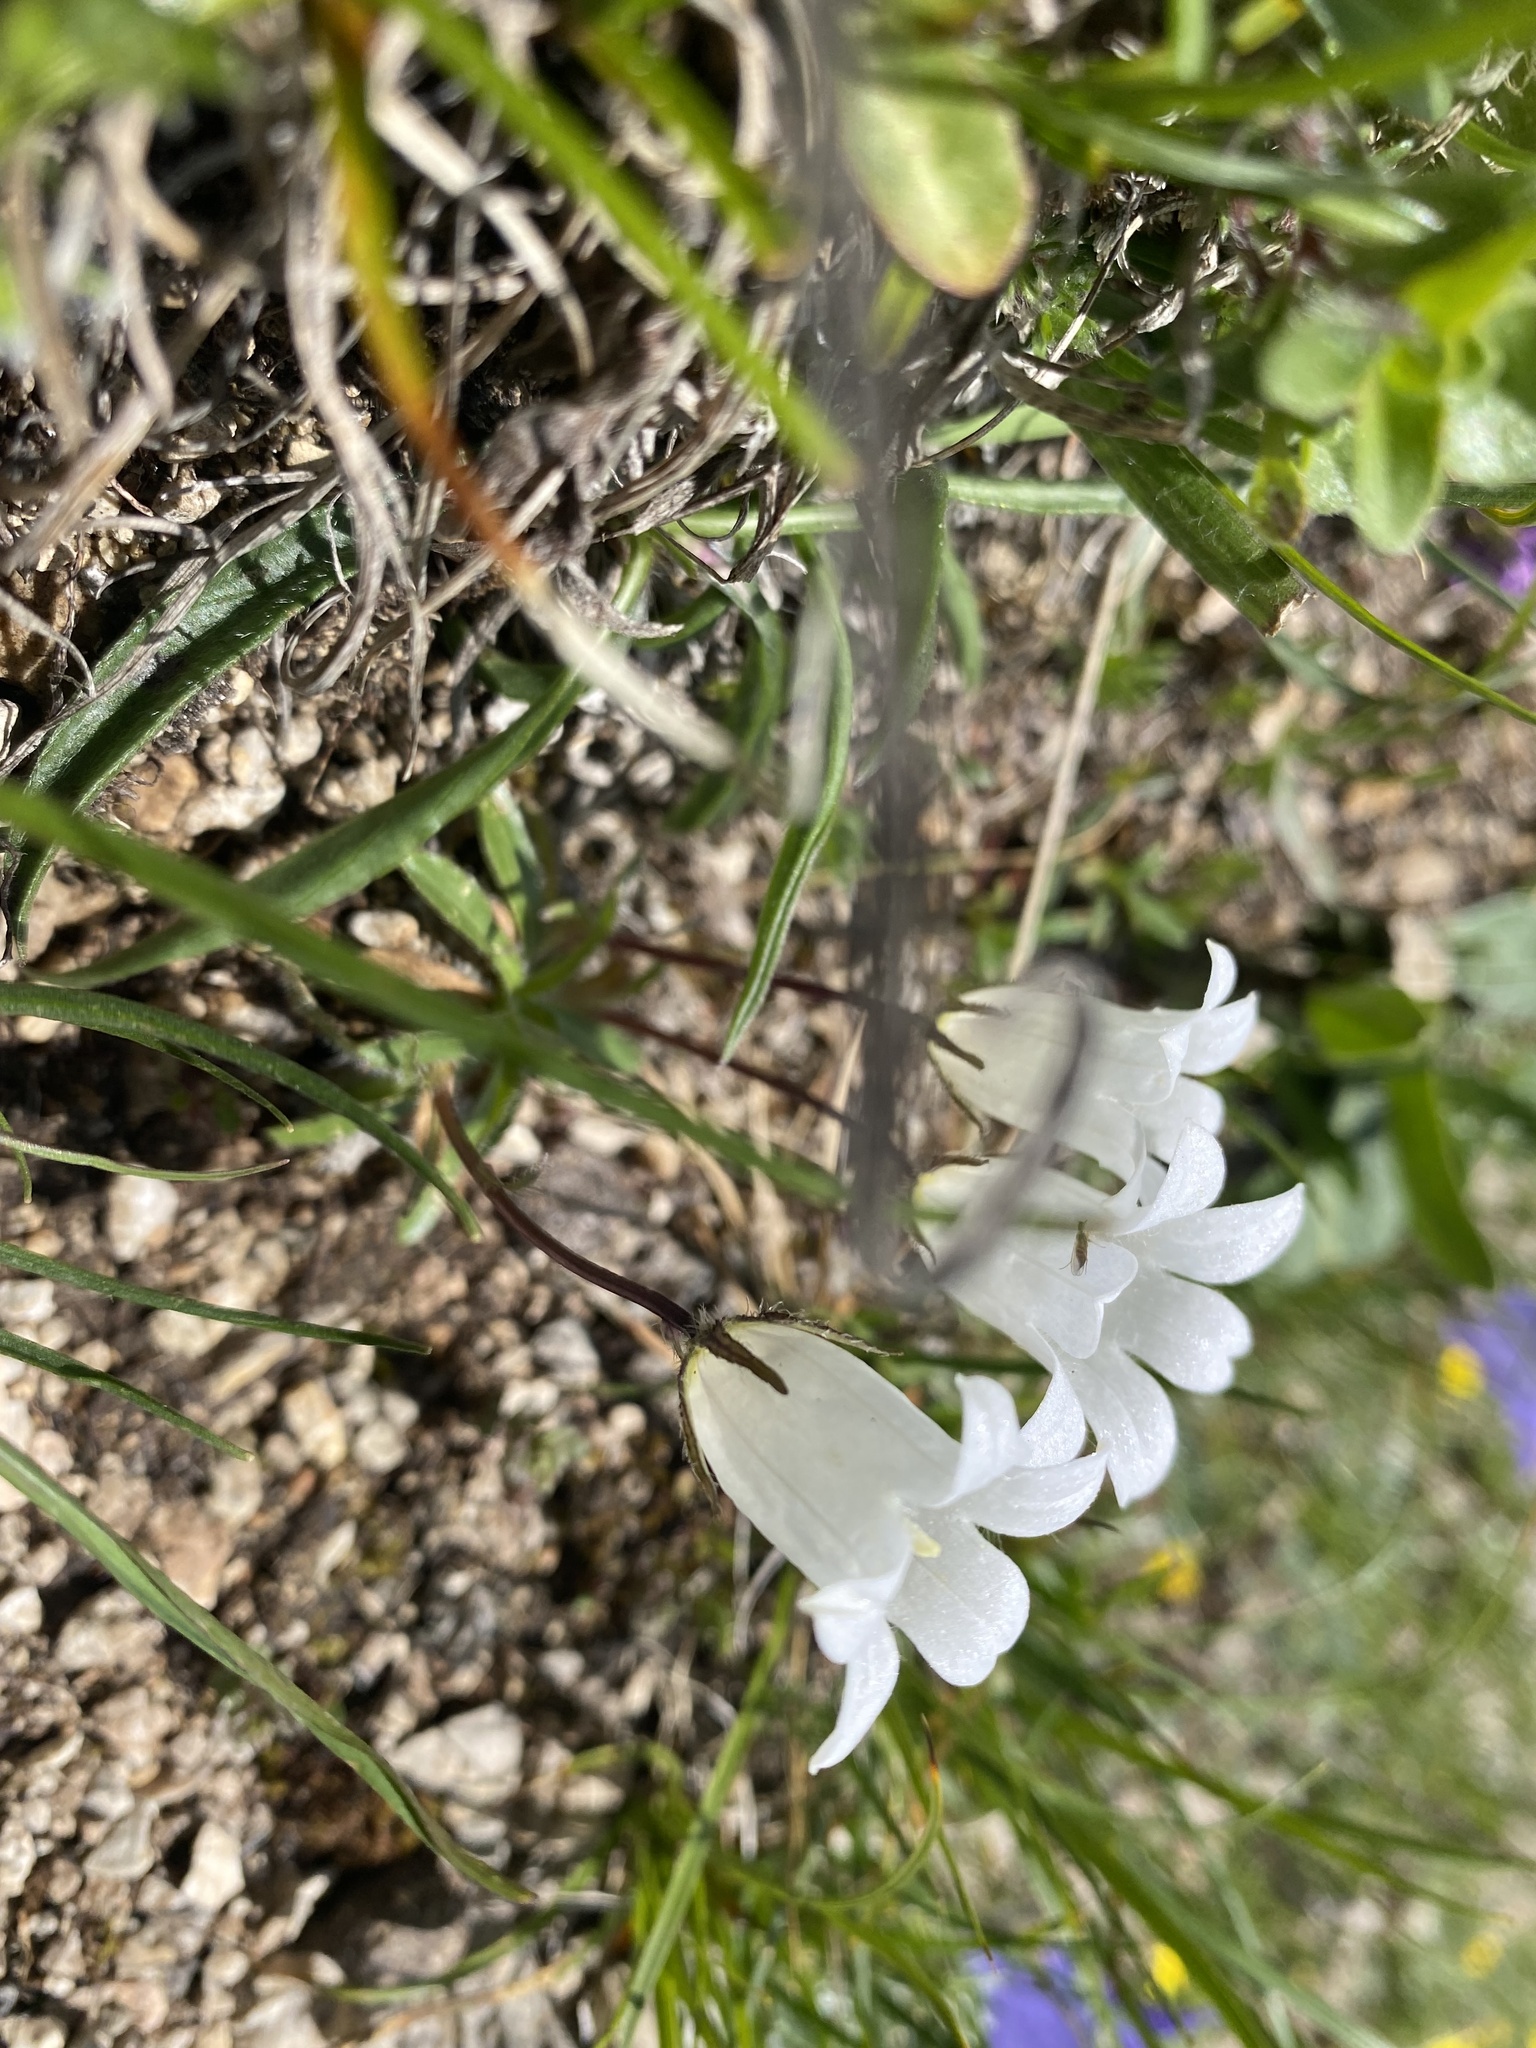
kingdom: Plantae
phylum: Tracheophyta
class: Magnoliopsida
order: Asterales
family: Campanulaceae
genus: Campanula
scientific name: Campanula ciliata
